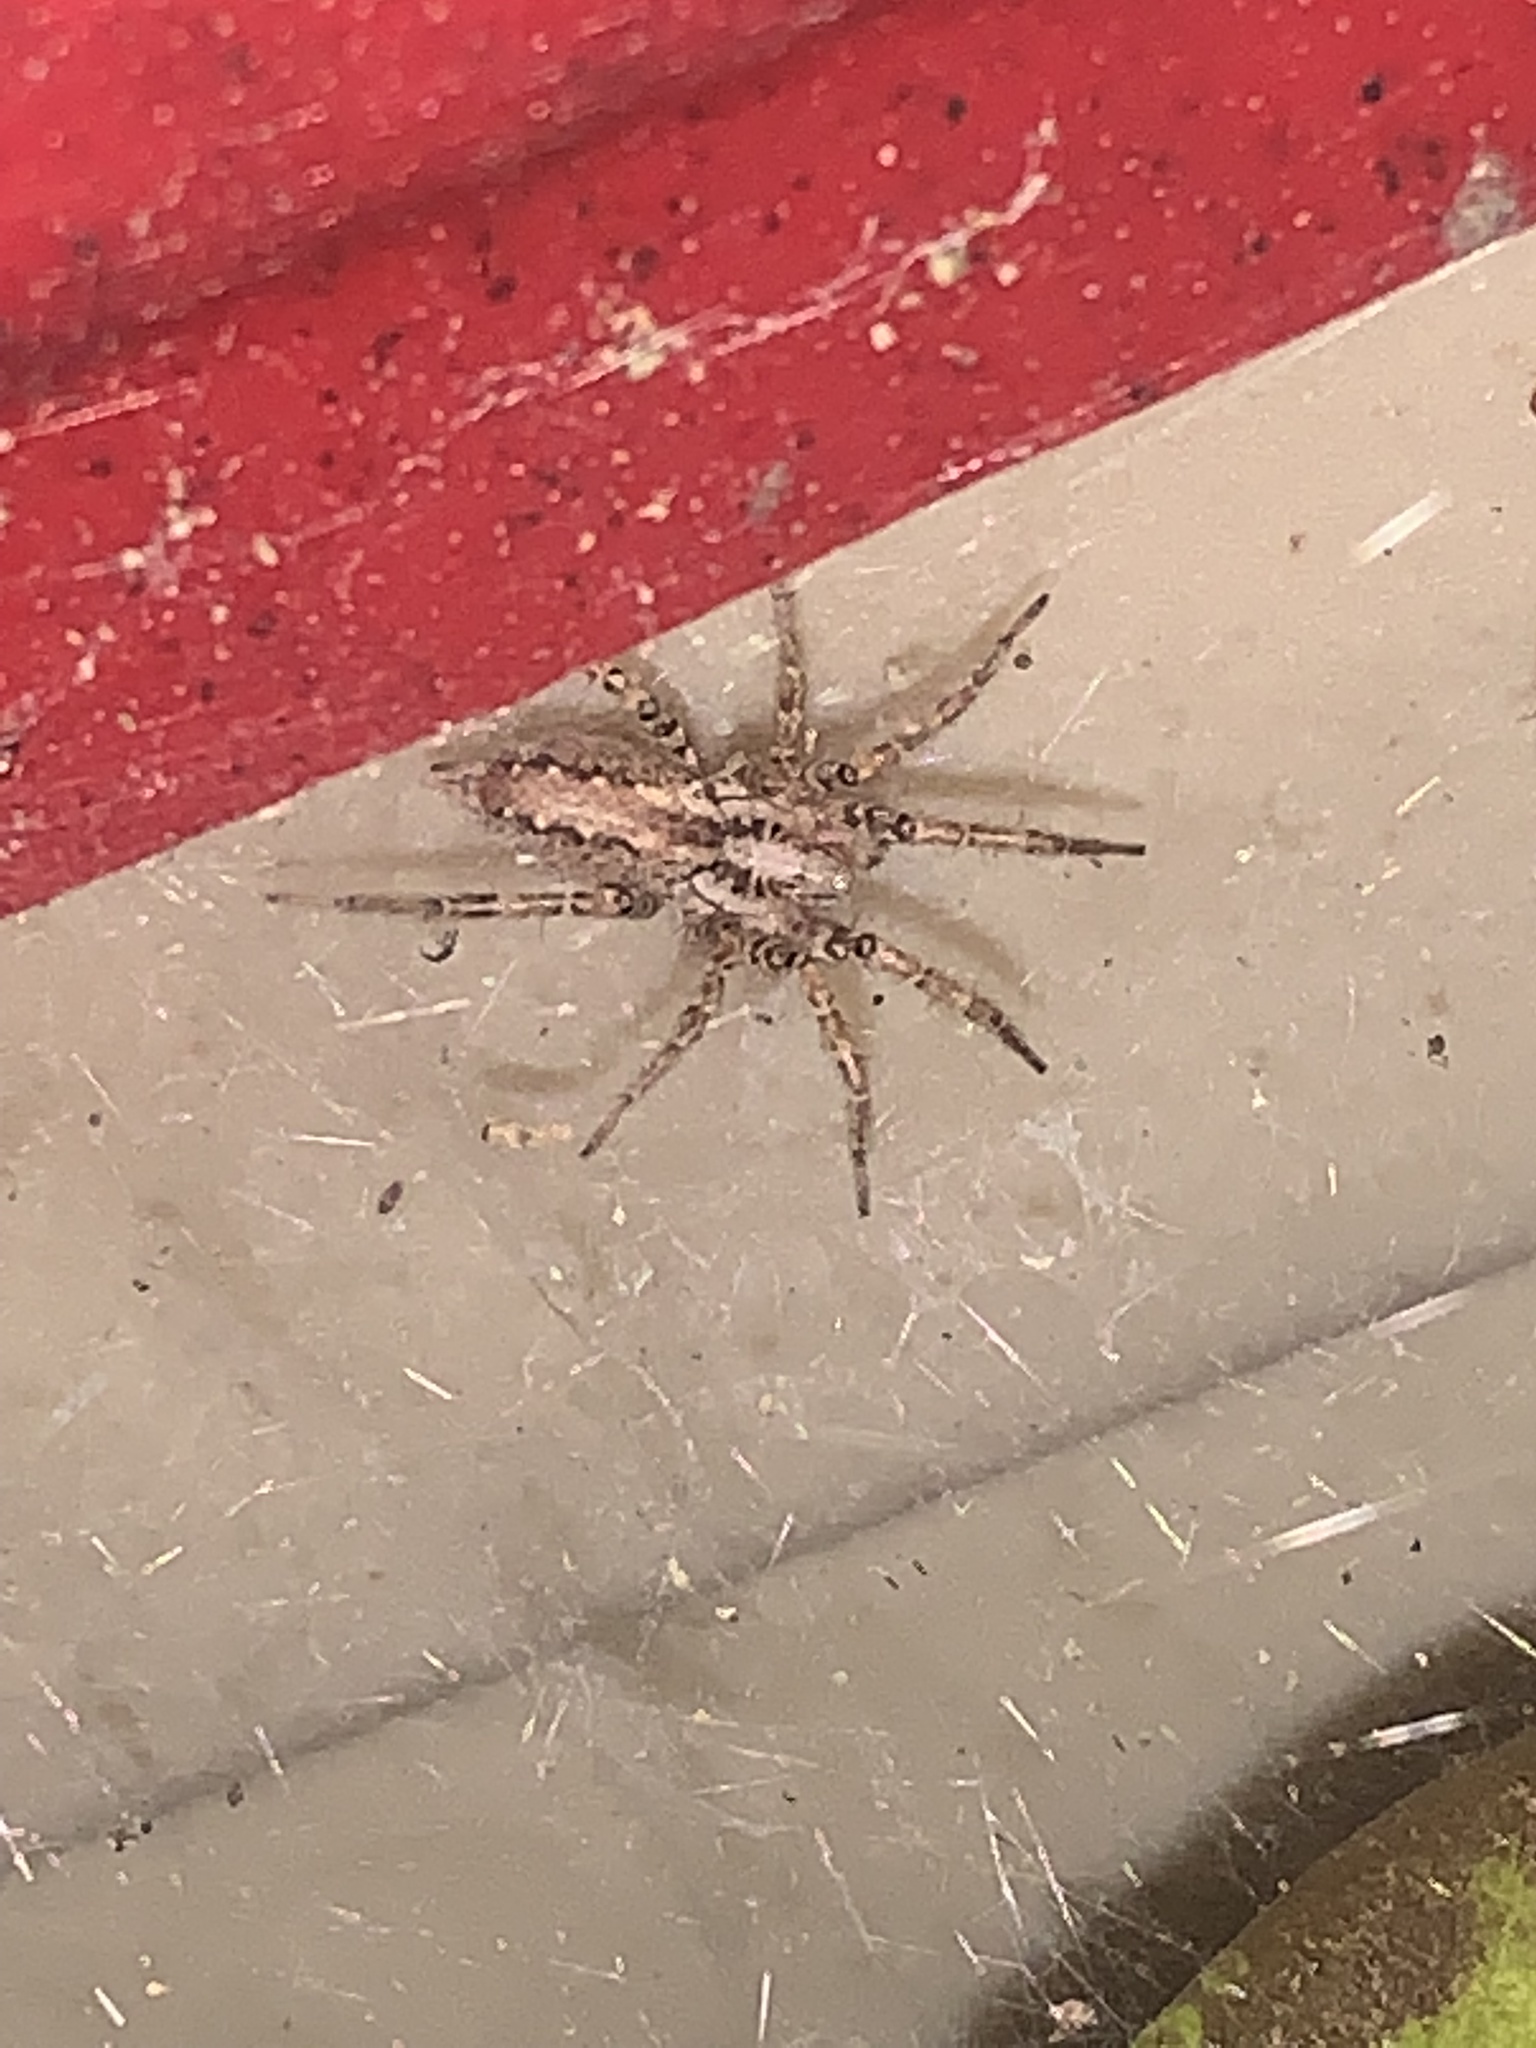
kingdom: Animalia
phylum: Arthropoda
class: Arachnida
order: Araneae
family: Agelenidae
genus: Barronopsis
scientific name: Barronopsis
